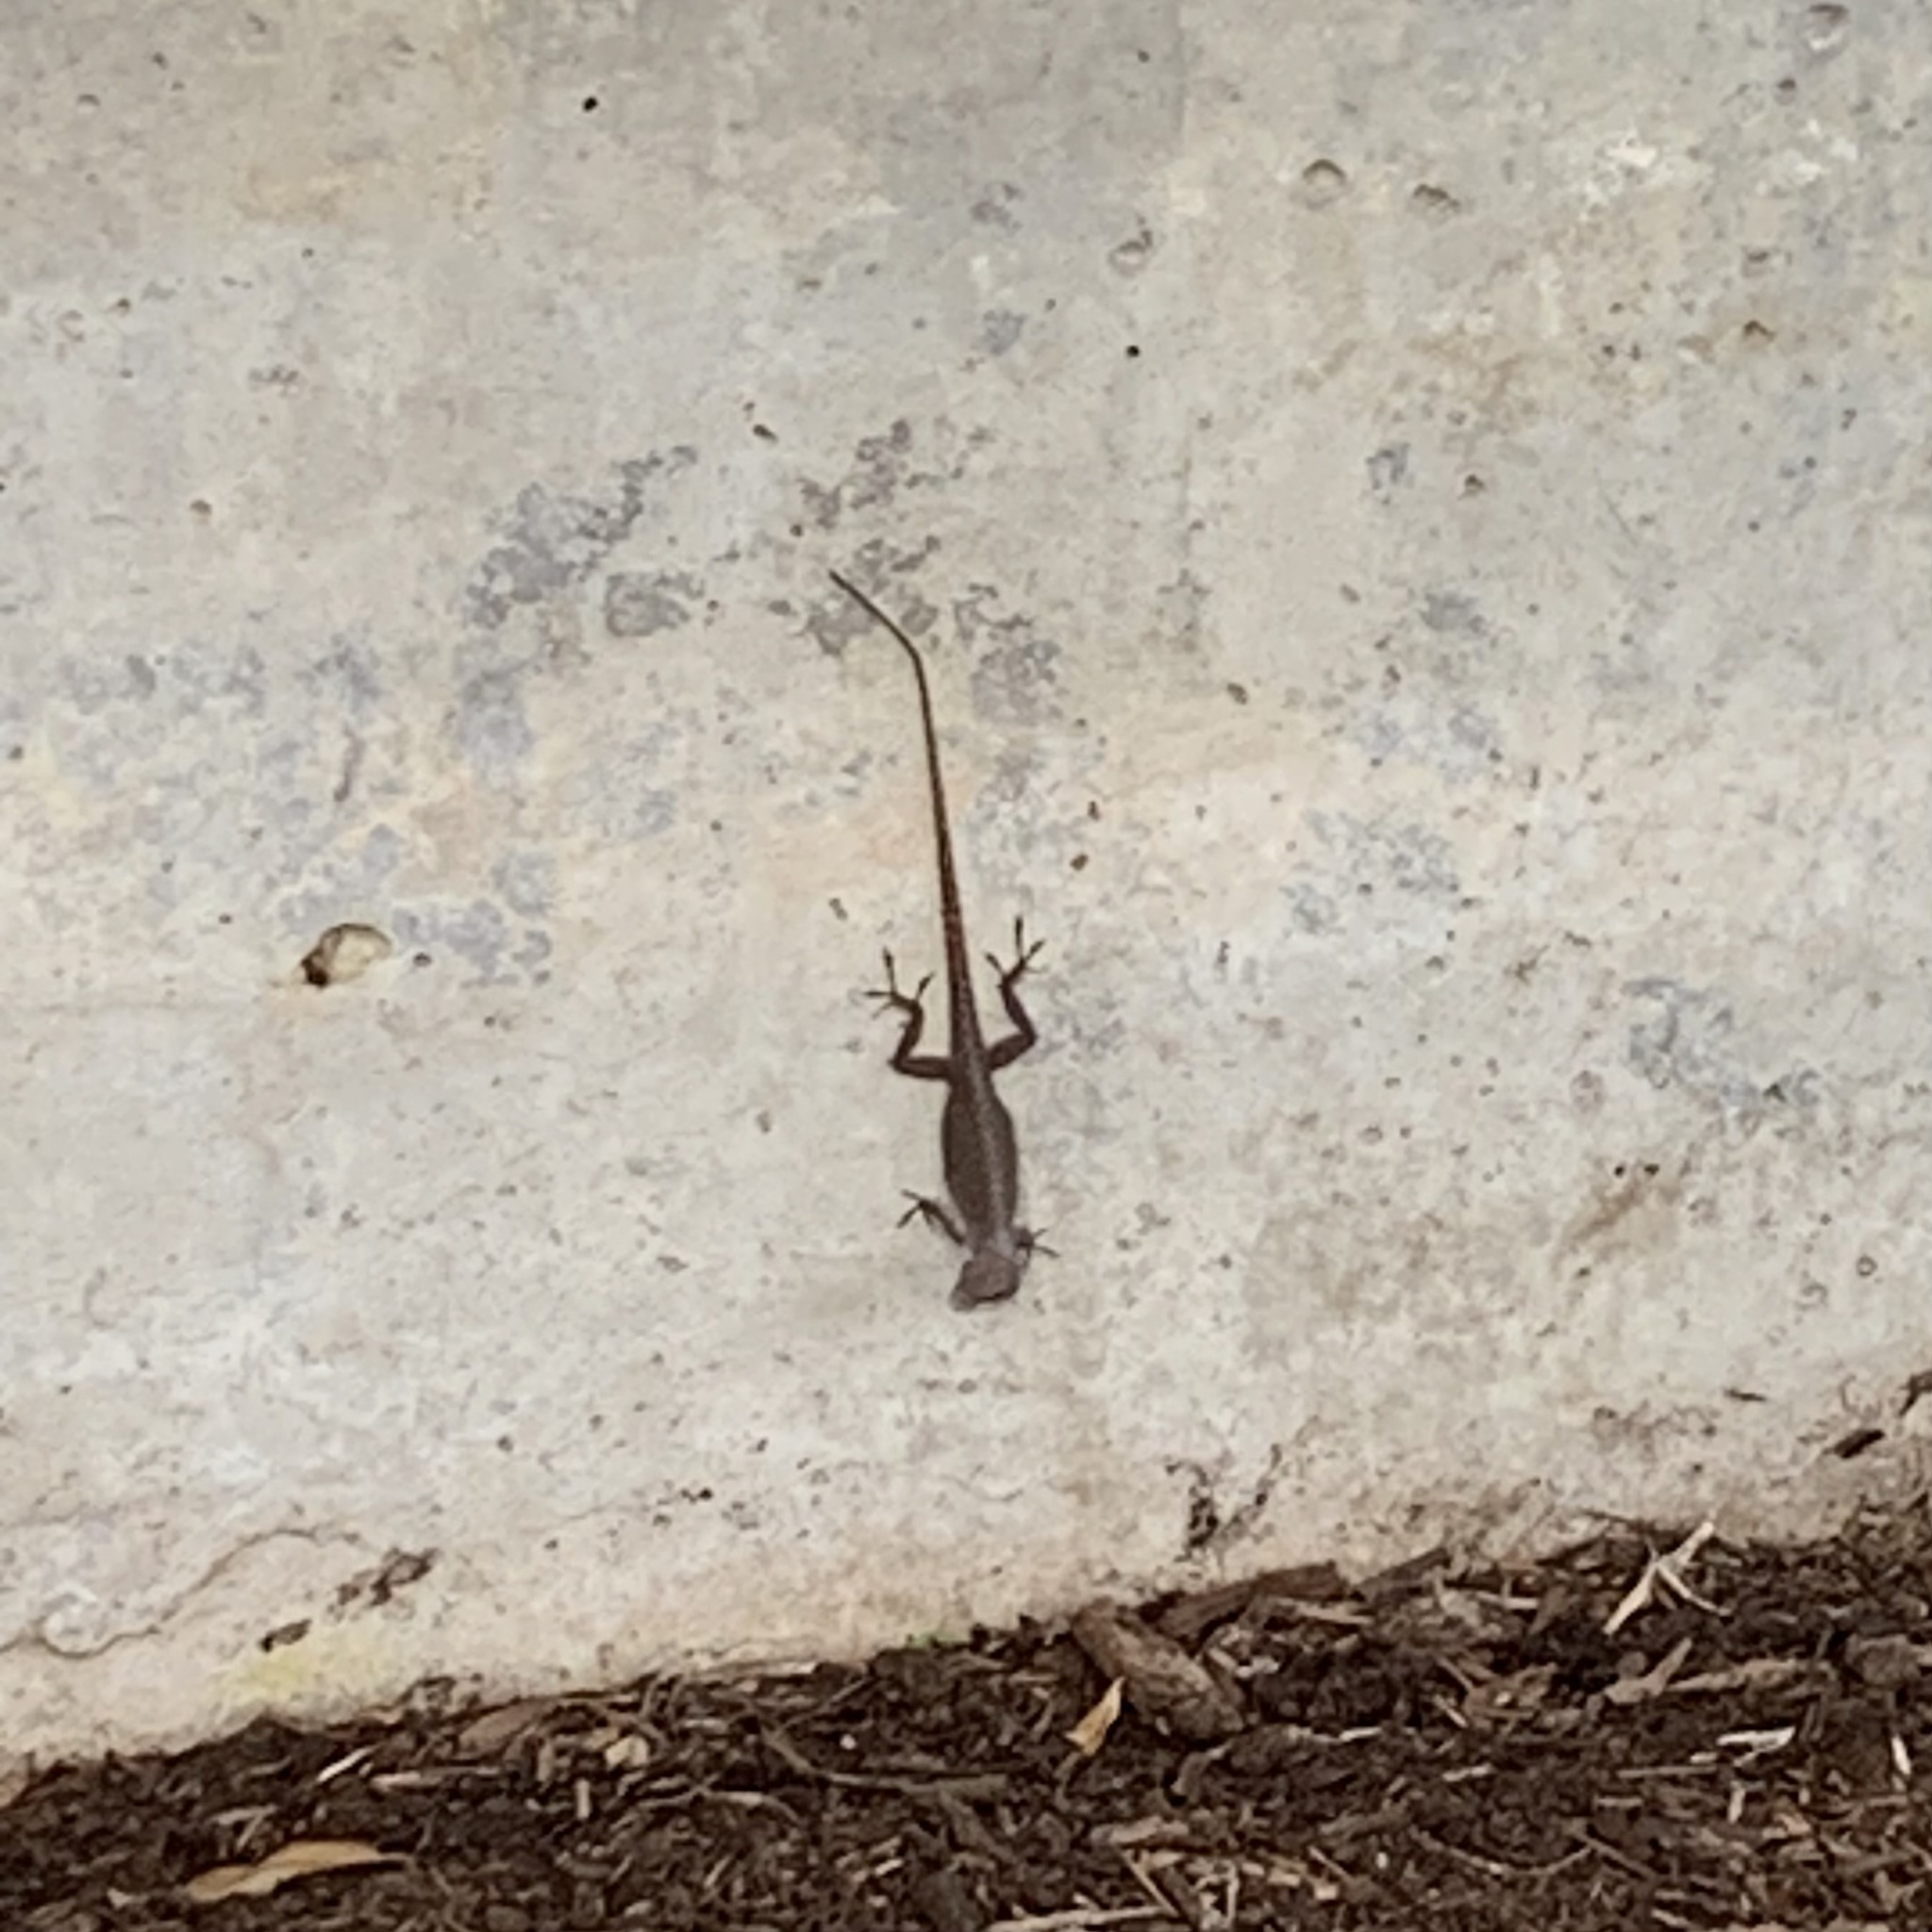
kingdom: Animalia
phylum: Chordata
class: Squamata
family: Dactyloidae
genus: Anolis
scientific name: Anolis carolinensis
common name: Green anole
